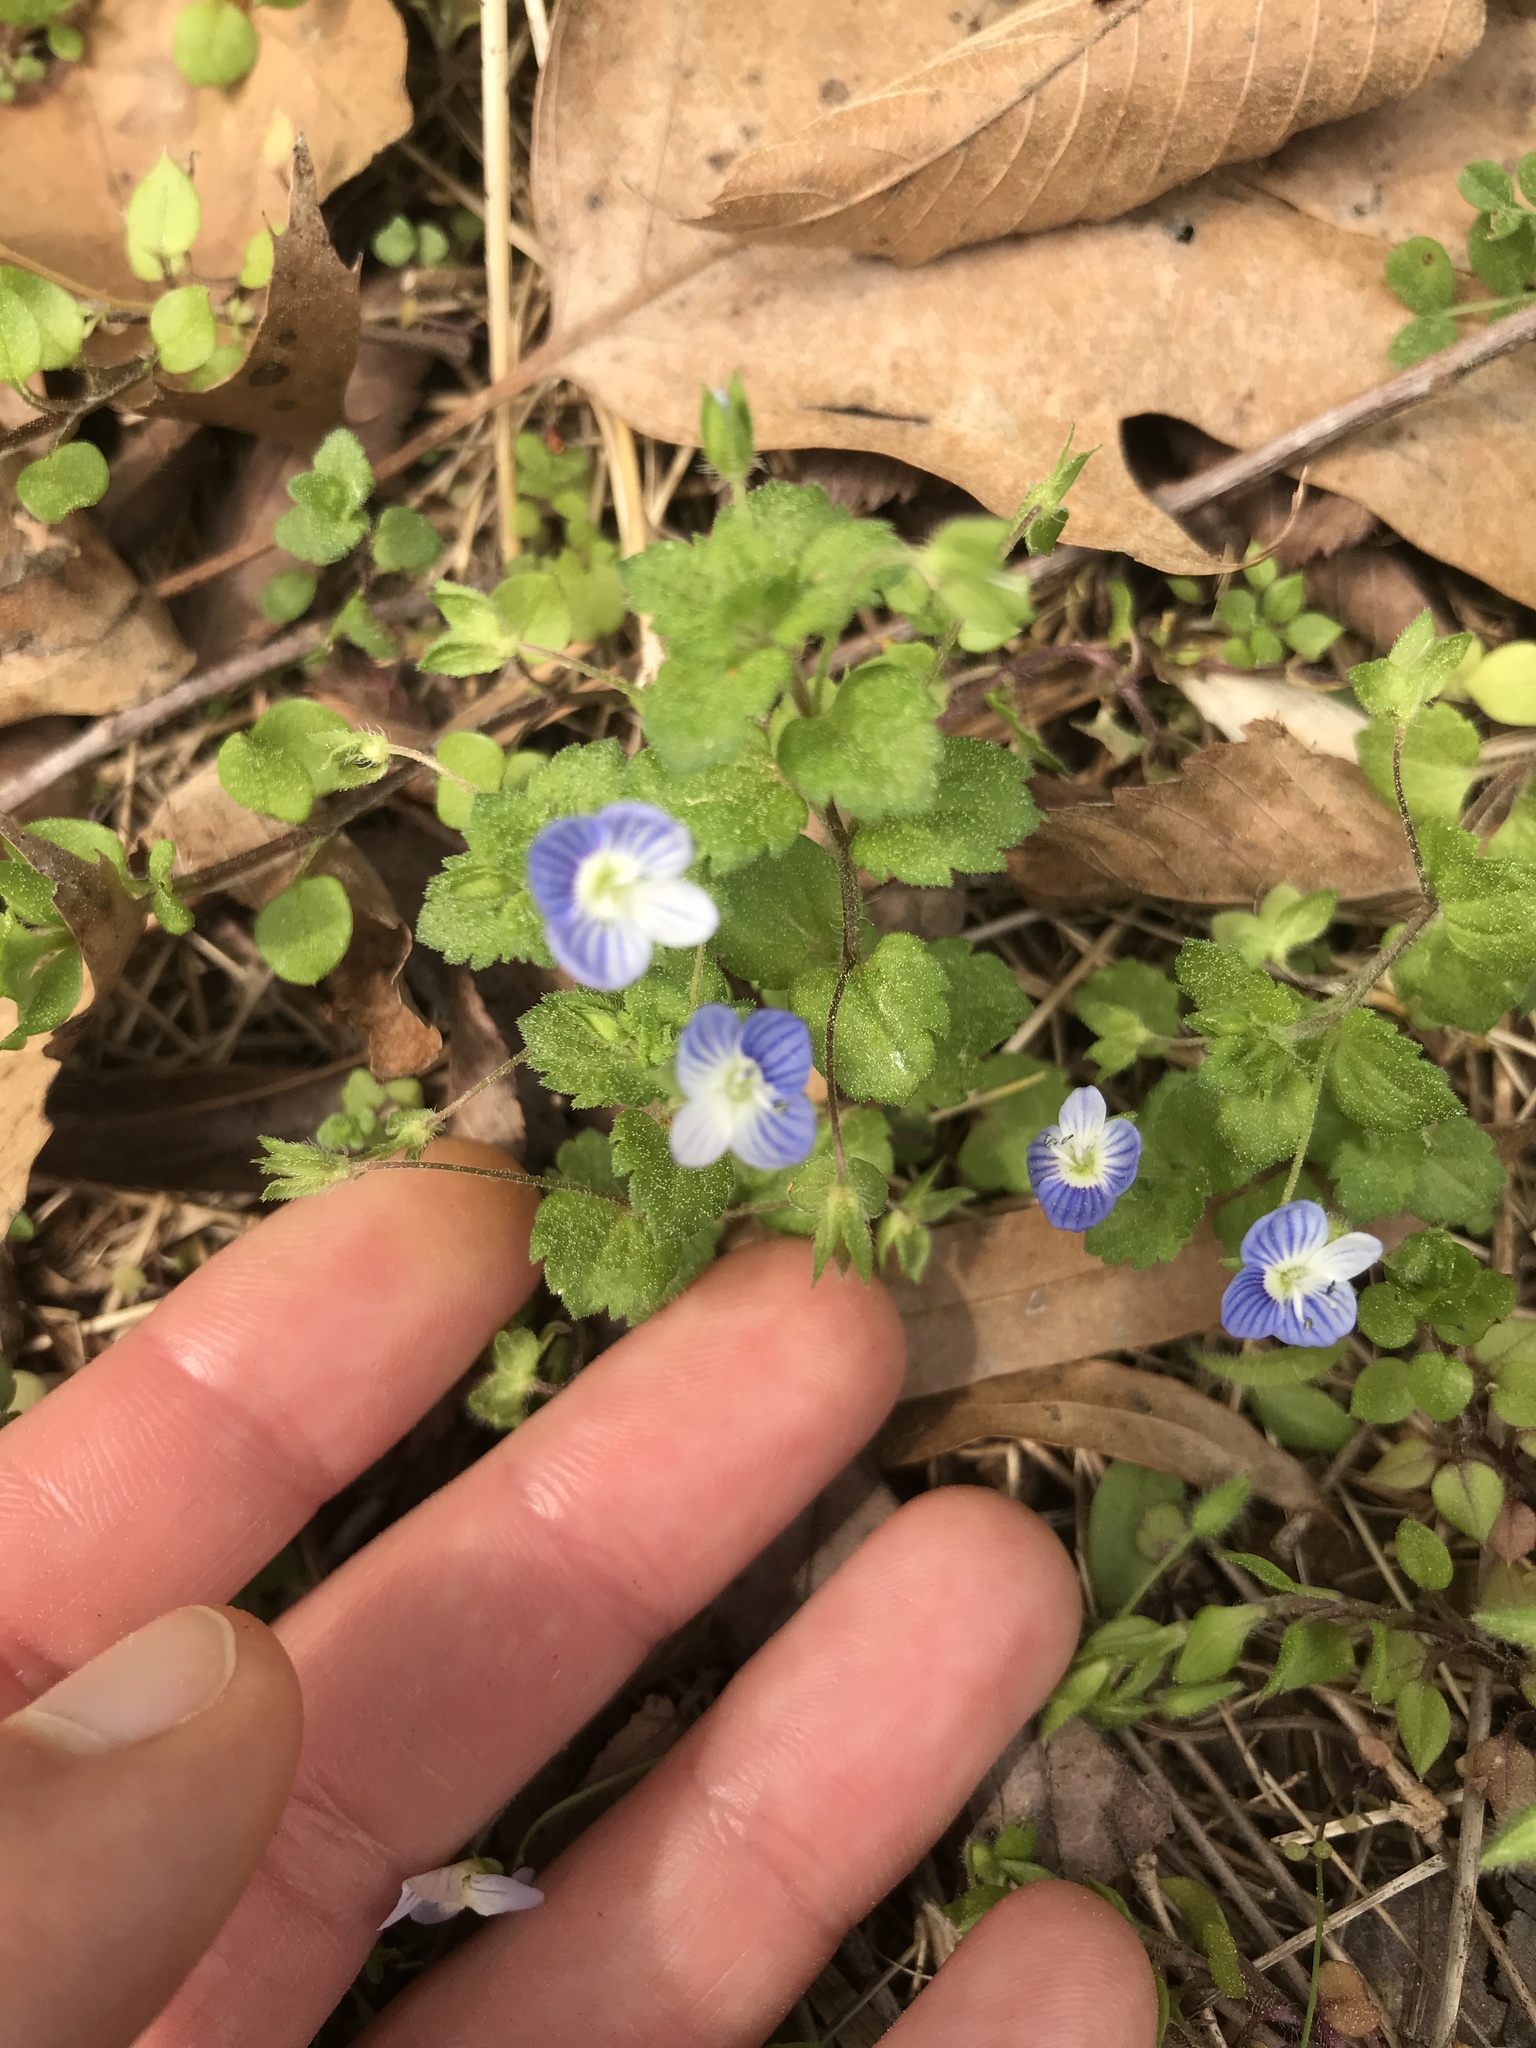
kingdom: Plantae
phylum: Tracheophyta
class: Magnoliopsida
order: Lamiales
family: Plantaginaceae
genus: Veronica
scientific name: Veronica persica
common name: Common field-speedwell
